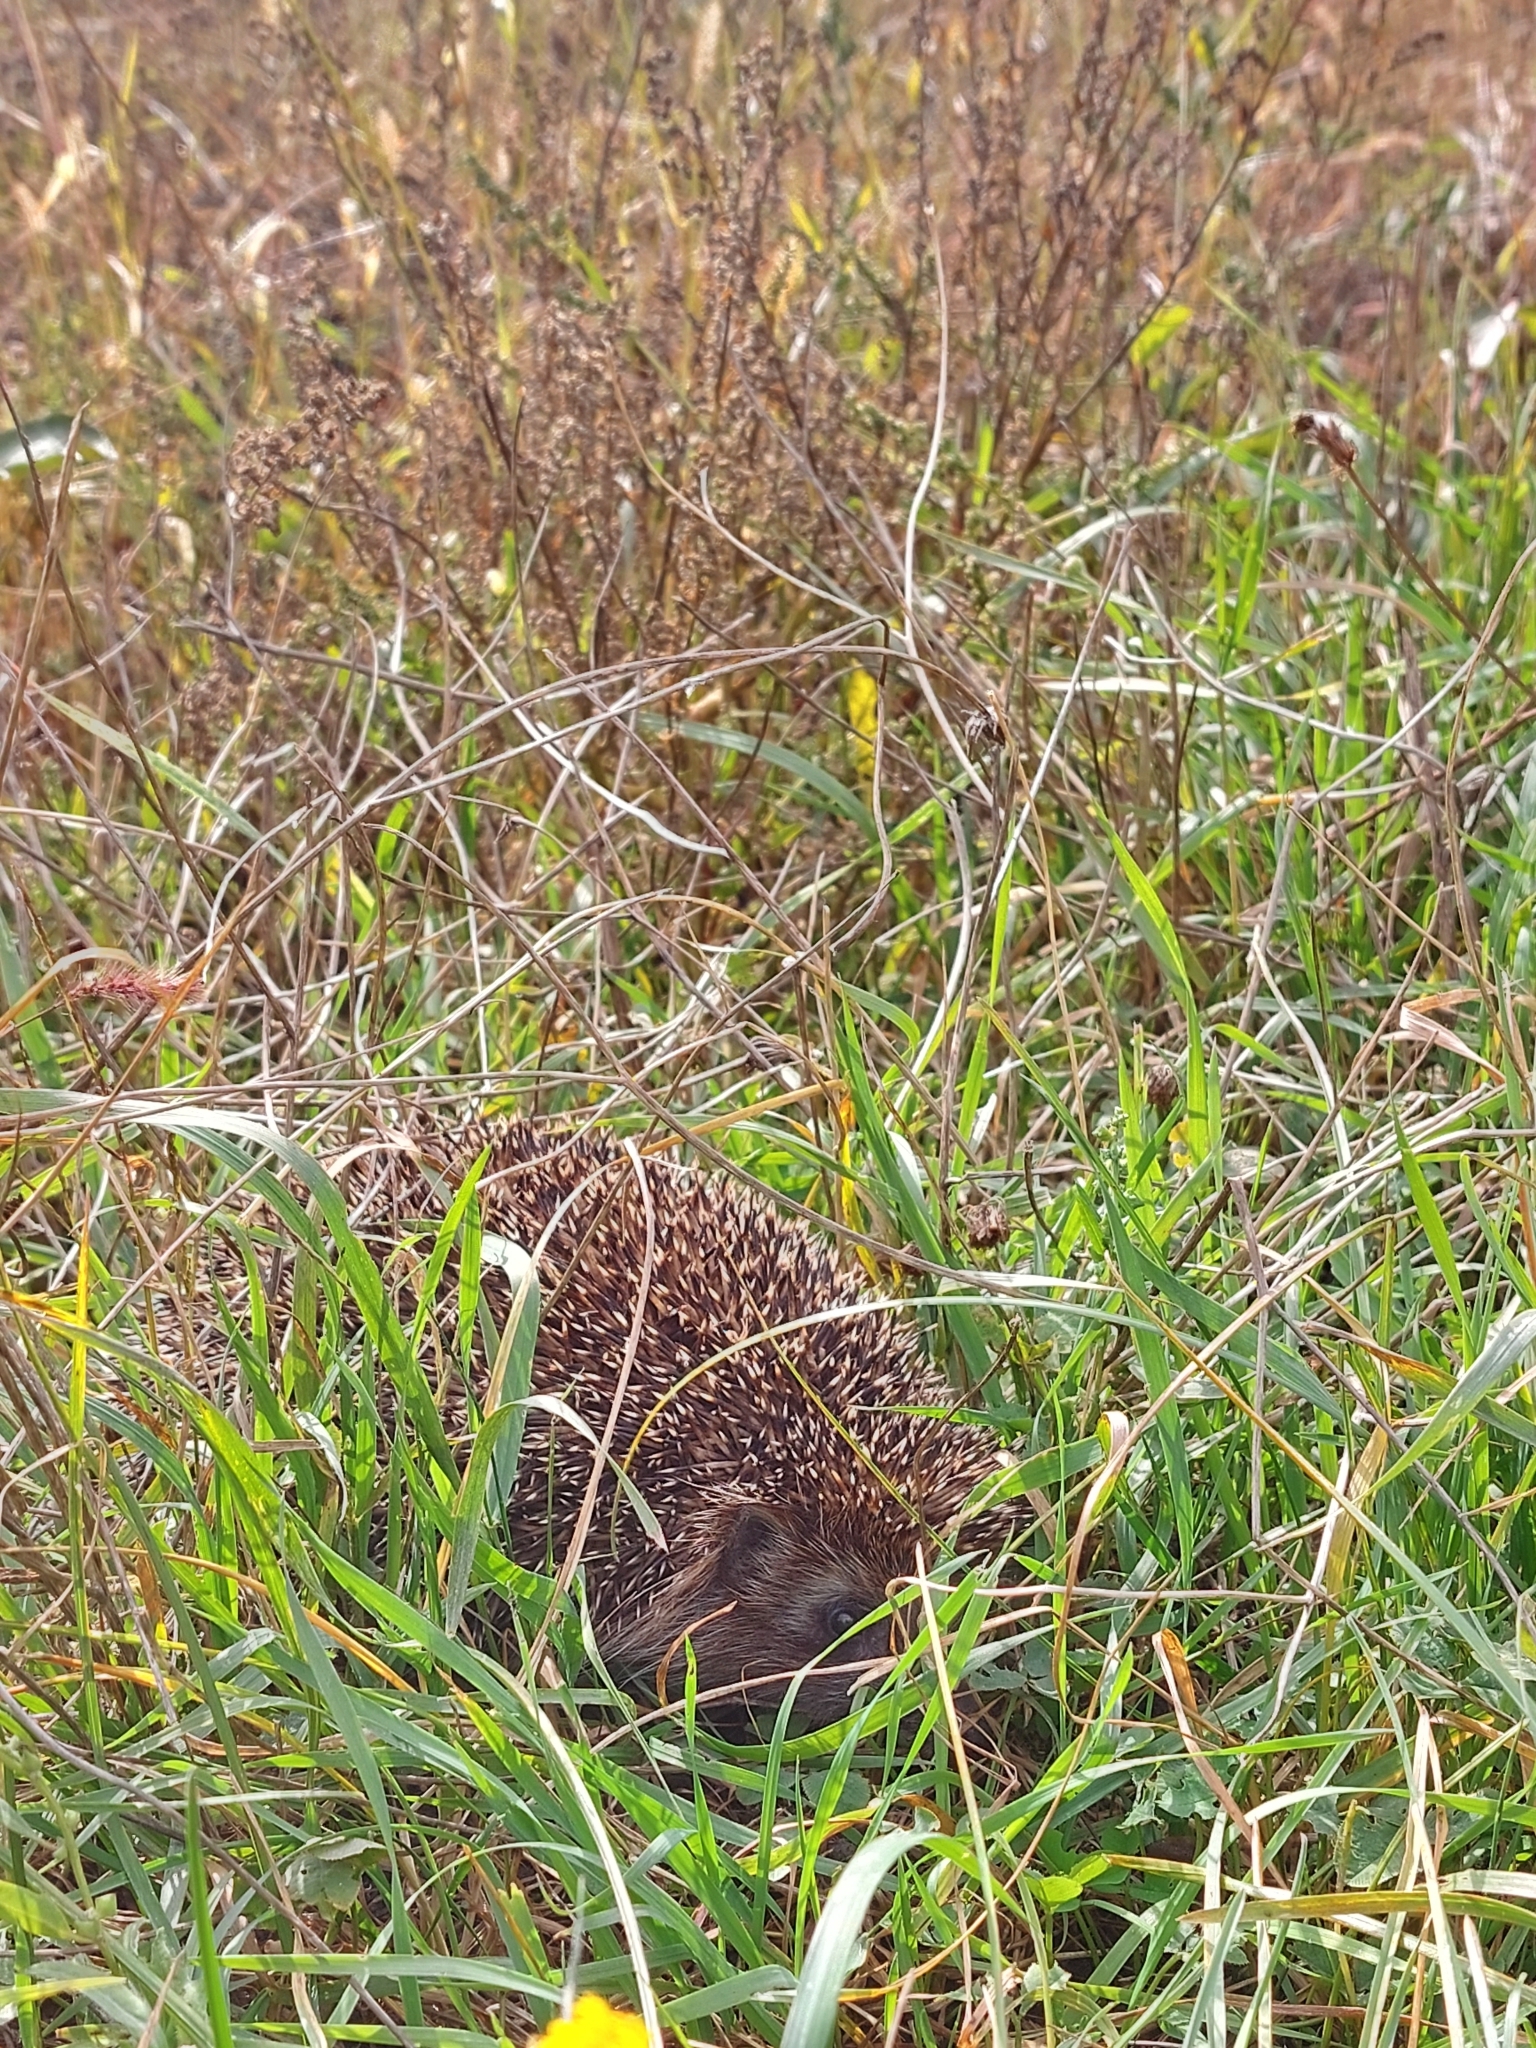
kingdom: Animalia
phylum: Chordata
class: Mammalia
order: Erinaceomorpha
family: Erinaceidae
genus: Erinaceus
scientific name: Erinaceus roumanicus
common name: Northern white-breasted hedgehog
